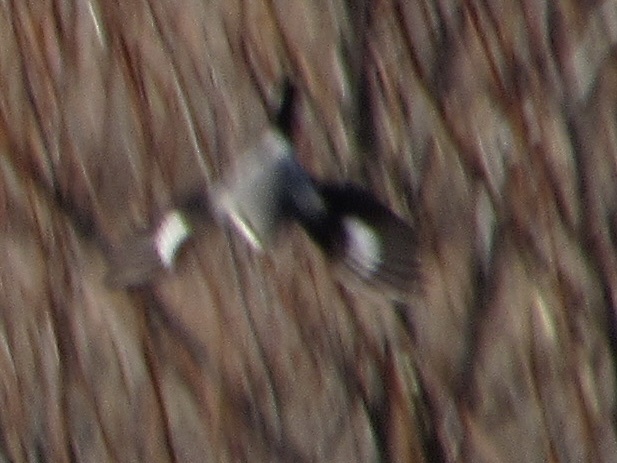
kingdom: Animalia
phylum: Chordata
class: Aves
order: Passeriformes
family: Laniidae
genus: Lanius
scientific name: Lanius ludovicianus
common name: Loggerhead shrike
